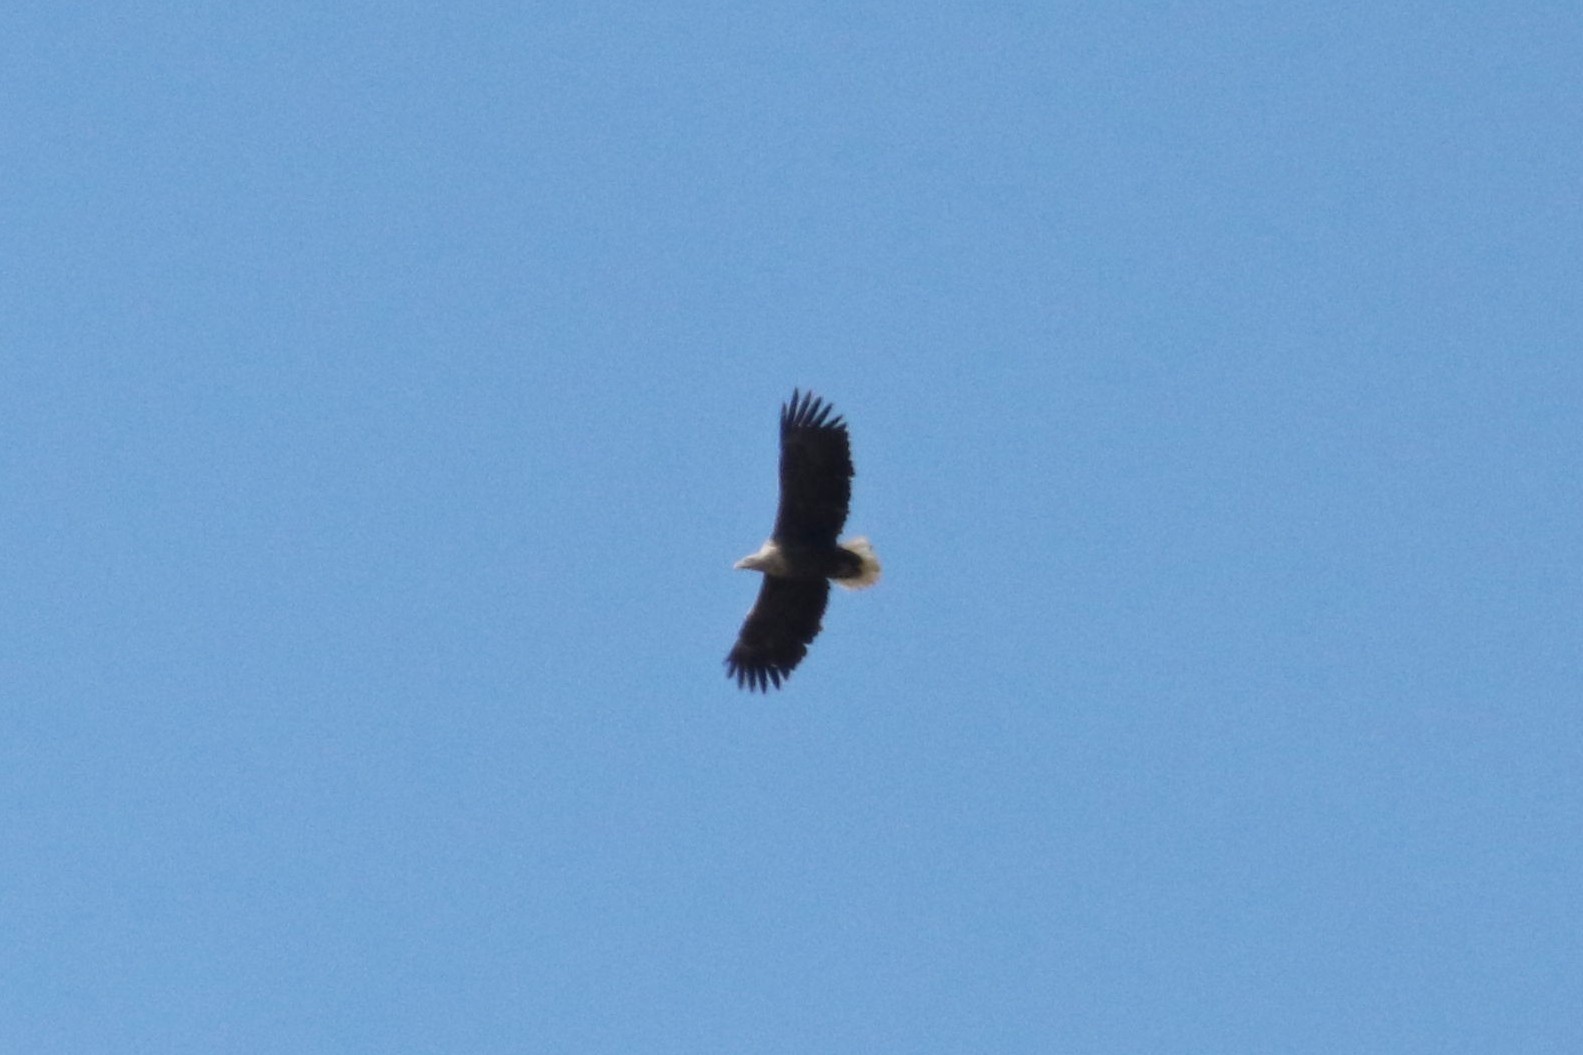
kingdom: Animalia
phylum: Chordata
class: Aves
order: Accipitriformes
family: Accipitridae
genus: Haliaeetus
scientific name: Haliaeetus albicilla
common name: White-tailed eagle
